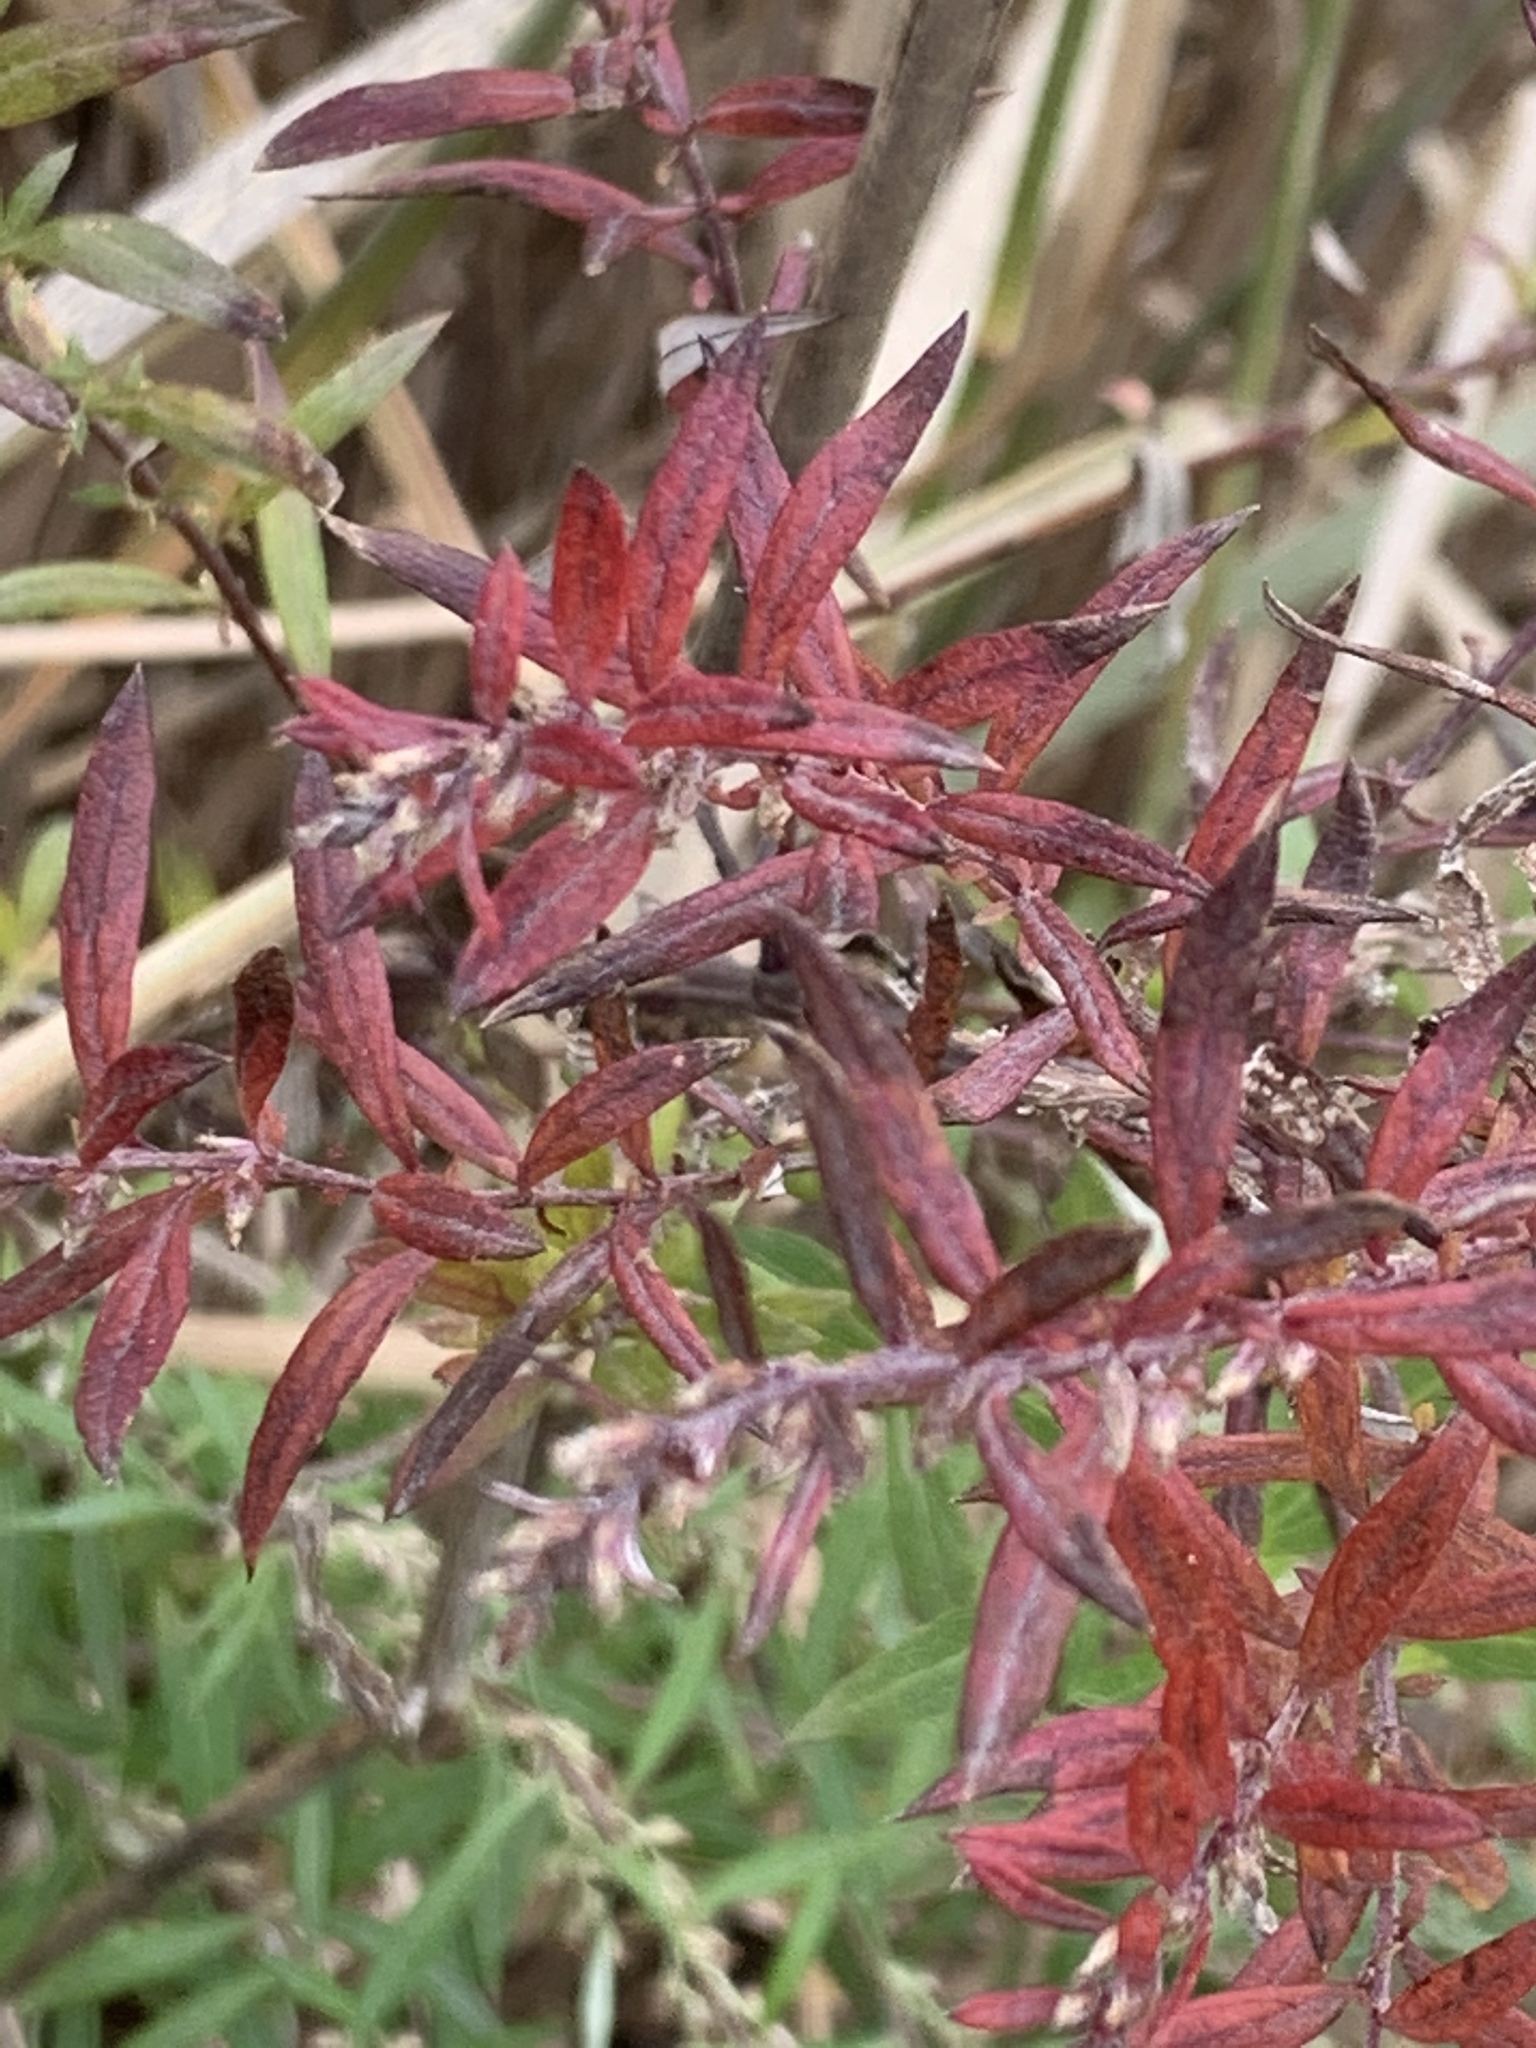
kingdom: Plantae
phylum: Tracheophyta
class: Magnoliopsida
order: Asterales
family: Asteraceae
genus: Artemisia
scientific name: Artemisia vulgaris
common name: Mugwort
